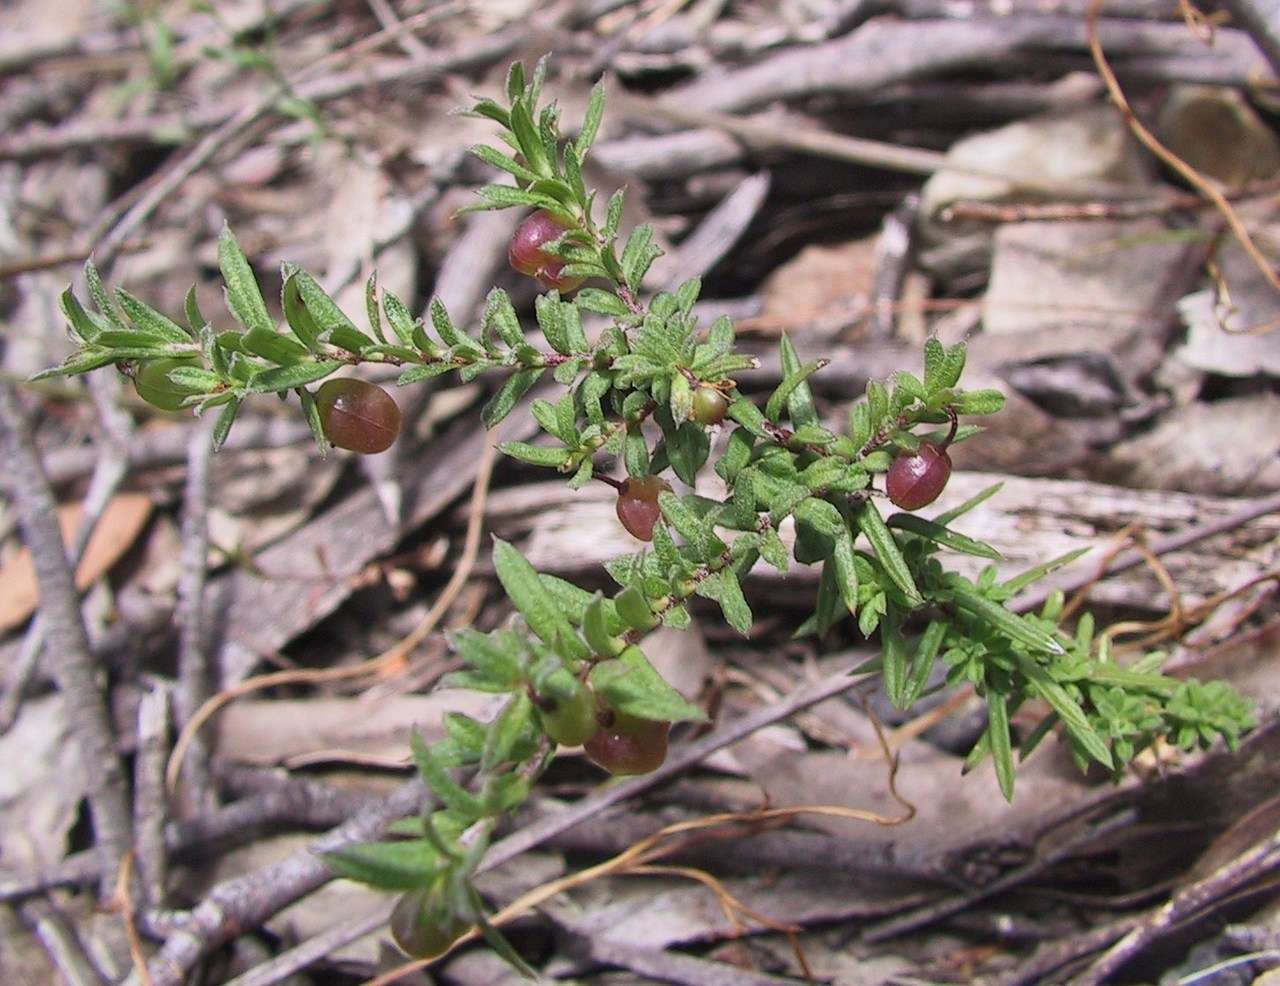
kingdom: Plantae
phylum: Tracheophyta
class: Magnoliopsida
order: Apiales
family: Pittosporaceae
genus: Rhytidosporum
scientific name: Rhytidosporum procumbens
